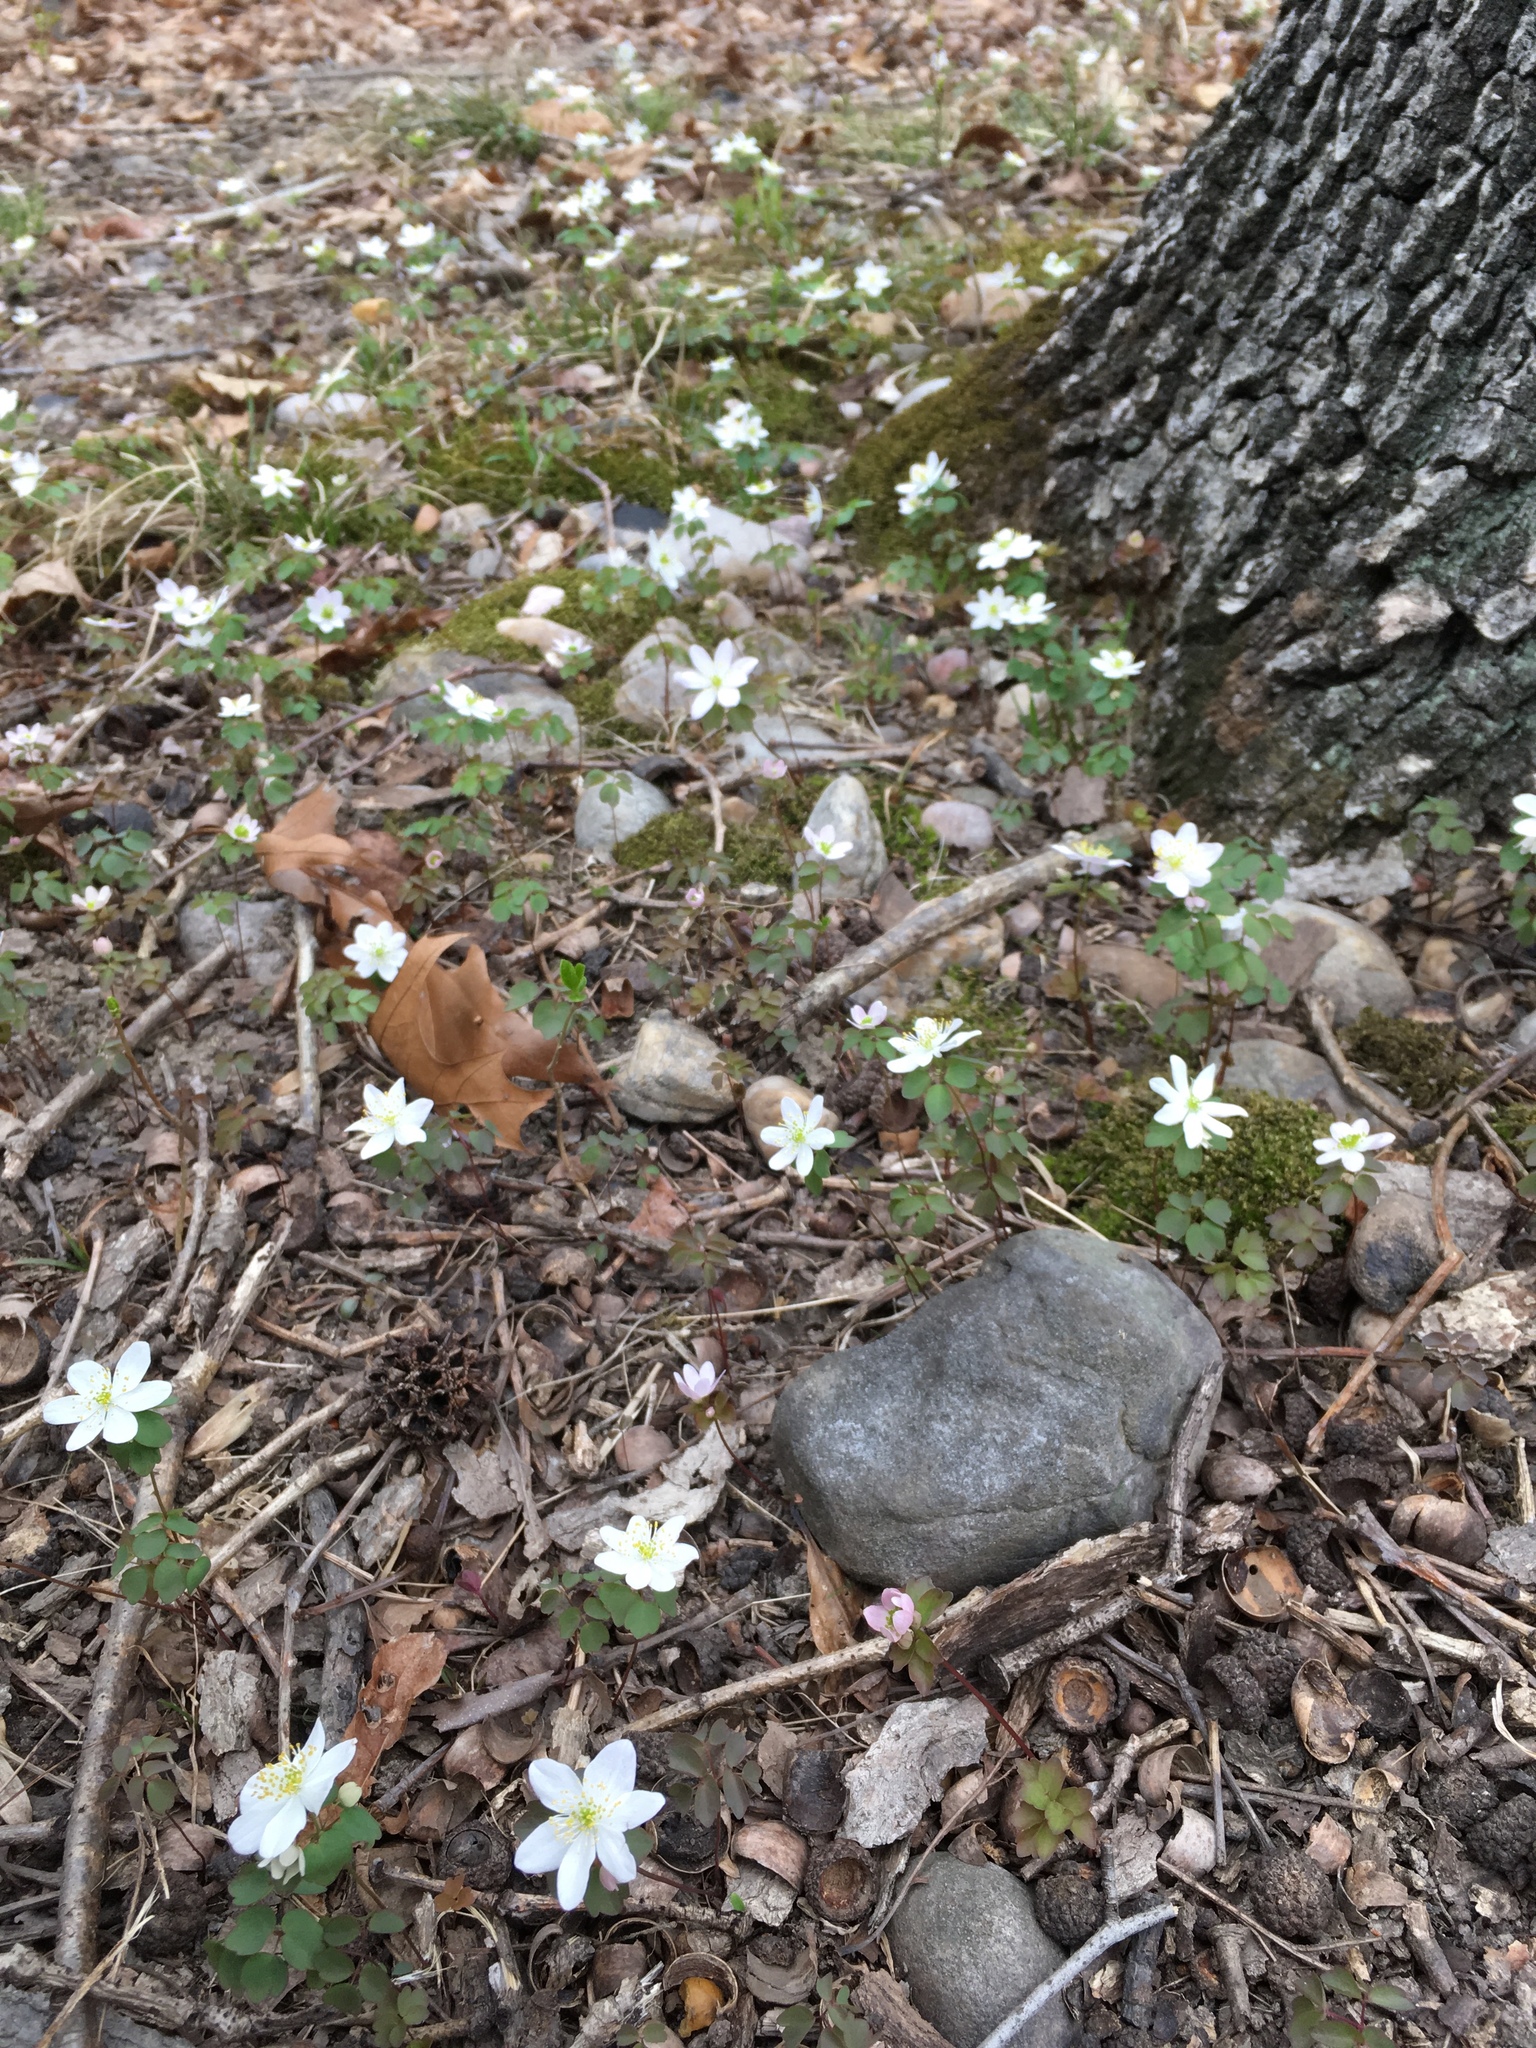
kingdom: Plantae
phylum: Tracheophyta
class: Magnoliopsida
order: Ranunculales
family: Ranunculaceae
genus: Thalictrum
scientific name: Thalictrum thalictroides
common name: Rue-anemone
